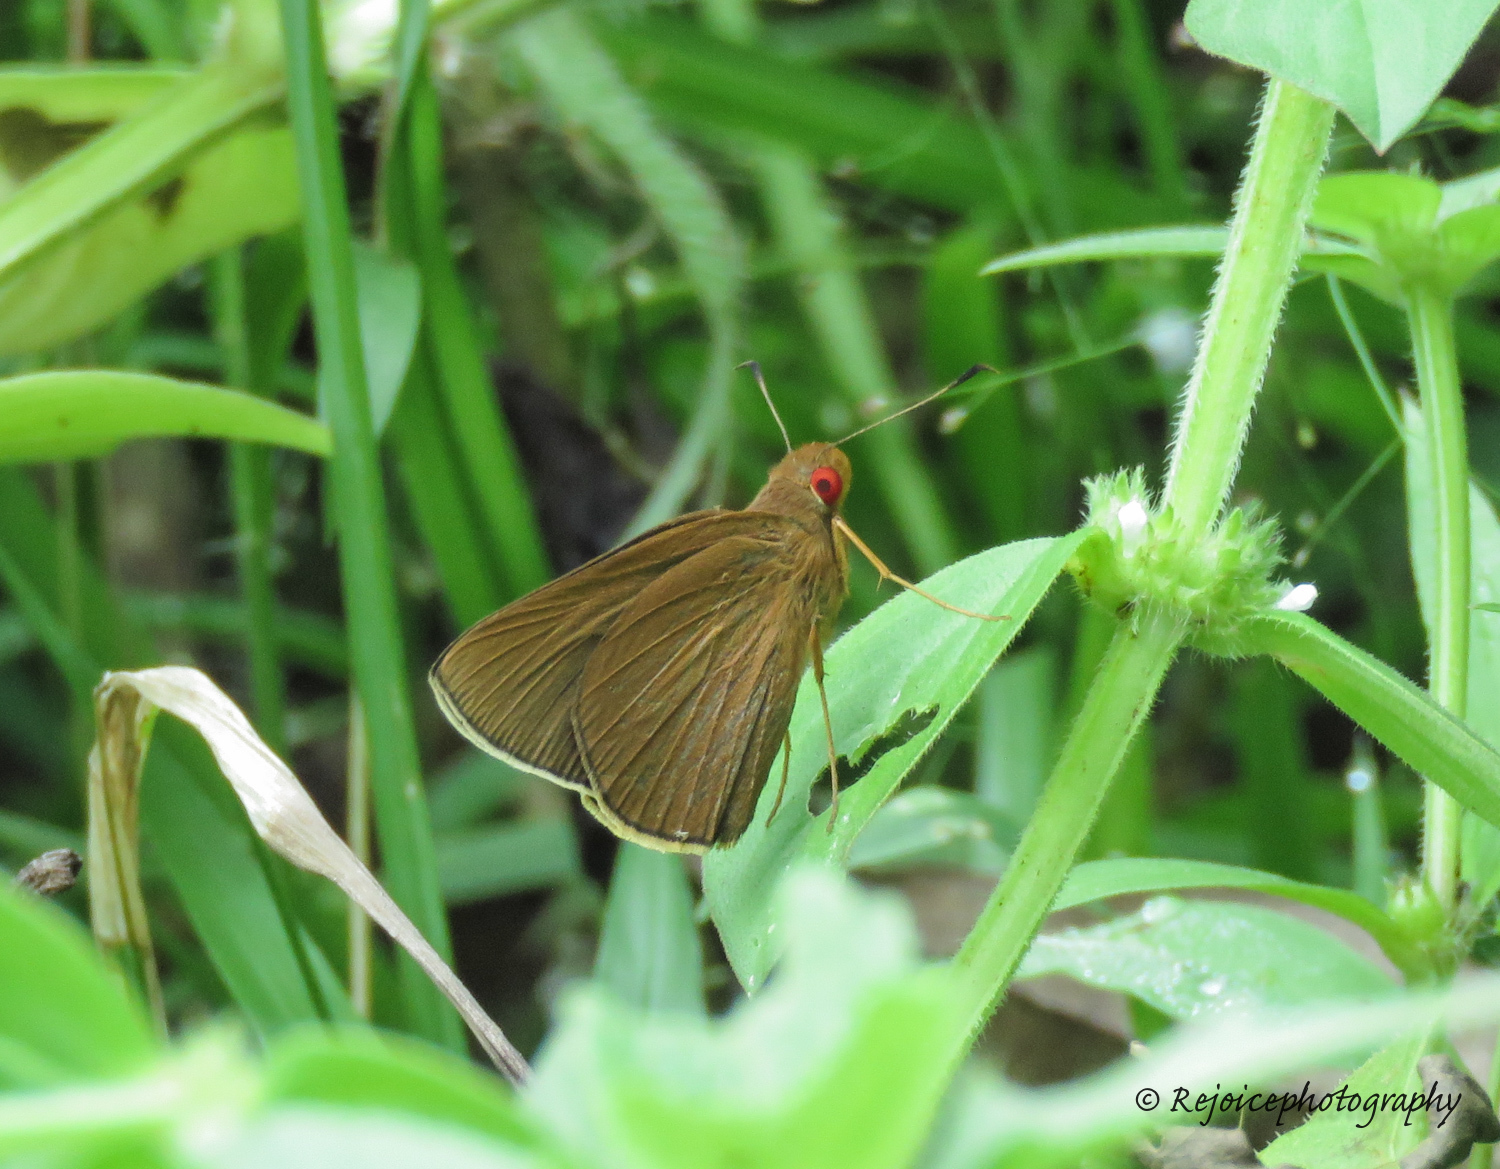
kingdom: Animalia
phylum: Arthropoda
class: Insecta
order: Lepidoptera
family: Hesperiidae
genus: Matapa
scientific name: Matapa aria
